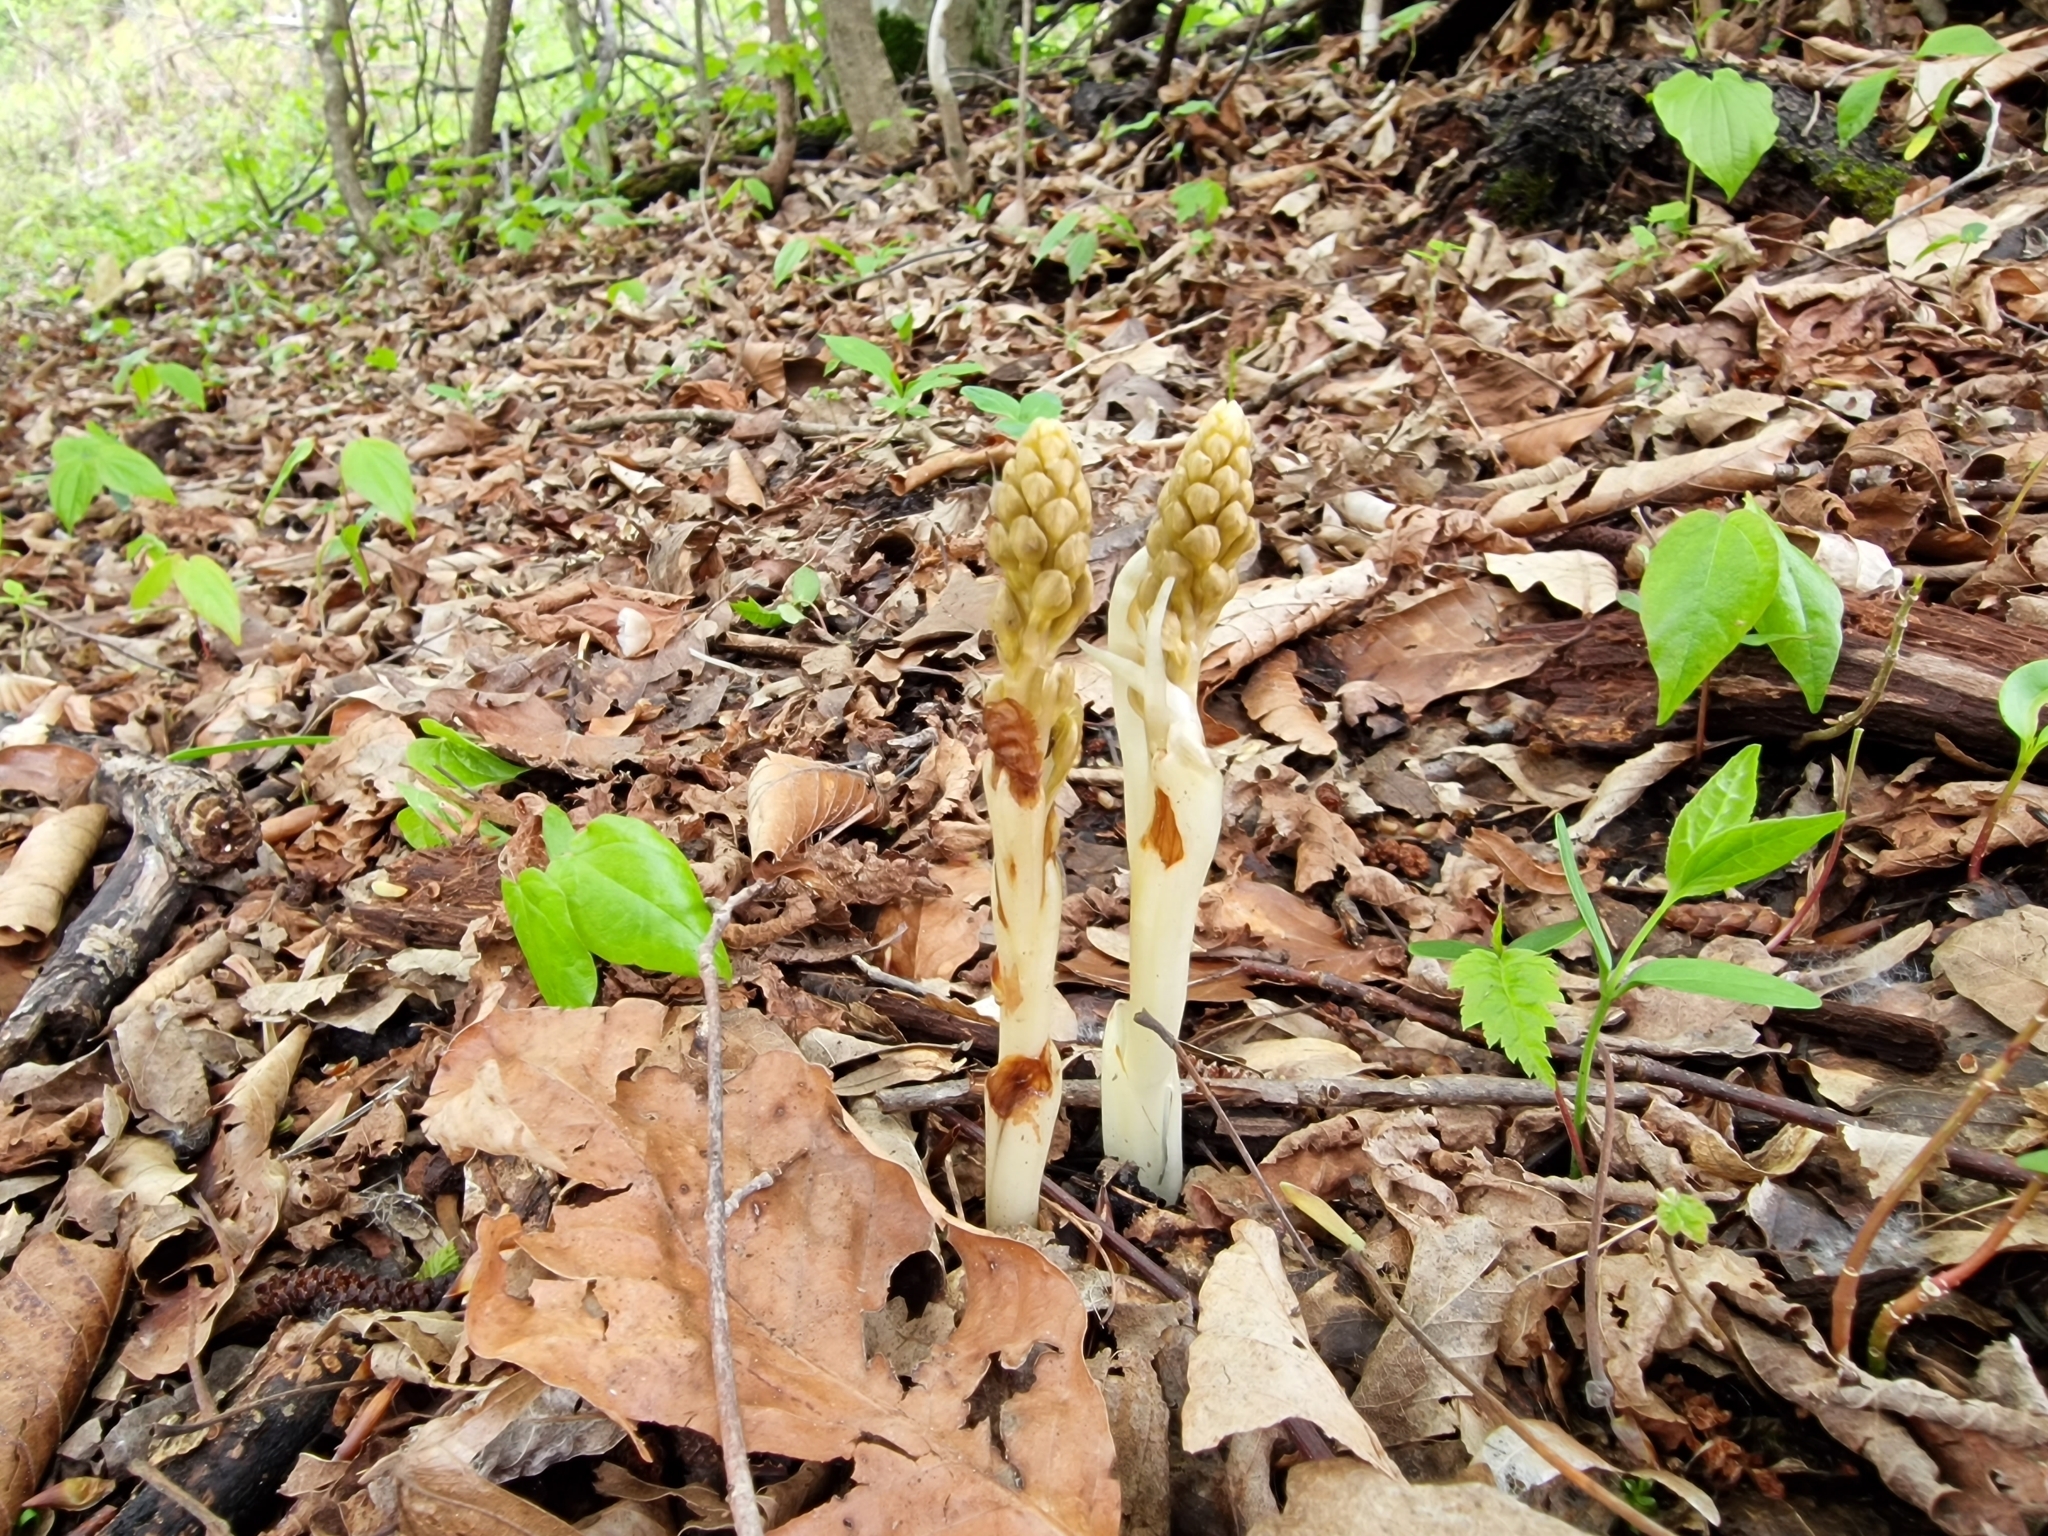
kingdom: Plantae
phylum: Tracheophyta
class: Liliopsida
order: Asparagales
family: Orchidaceae
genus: Neottia
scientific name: Neottia nidus-avis
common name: Bird's-nest orchid
